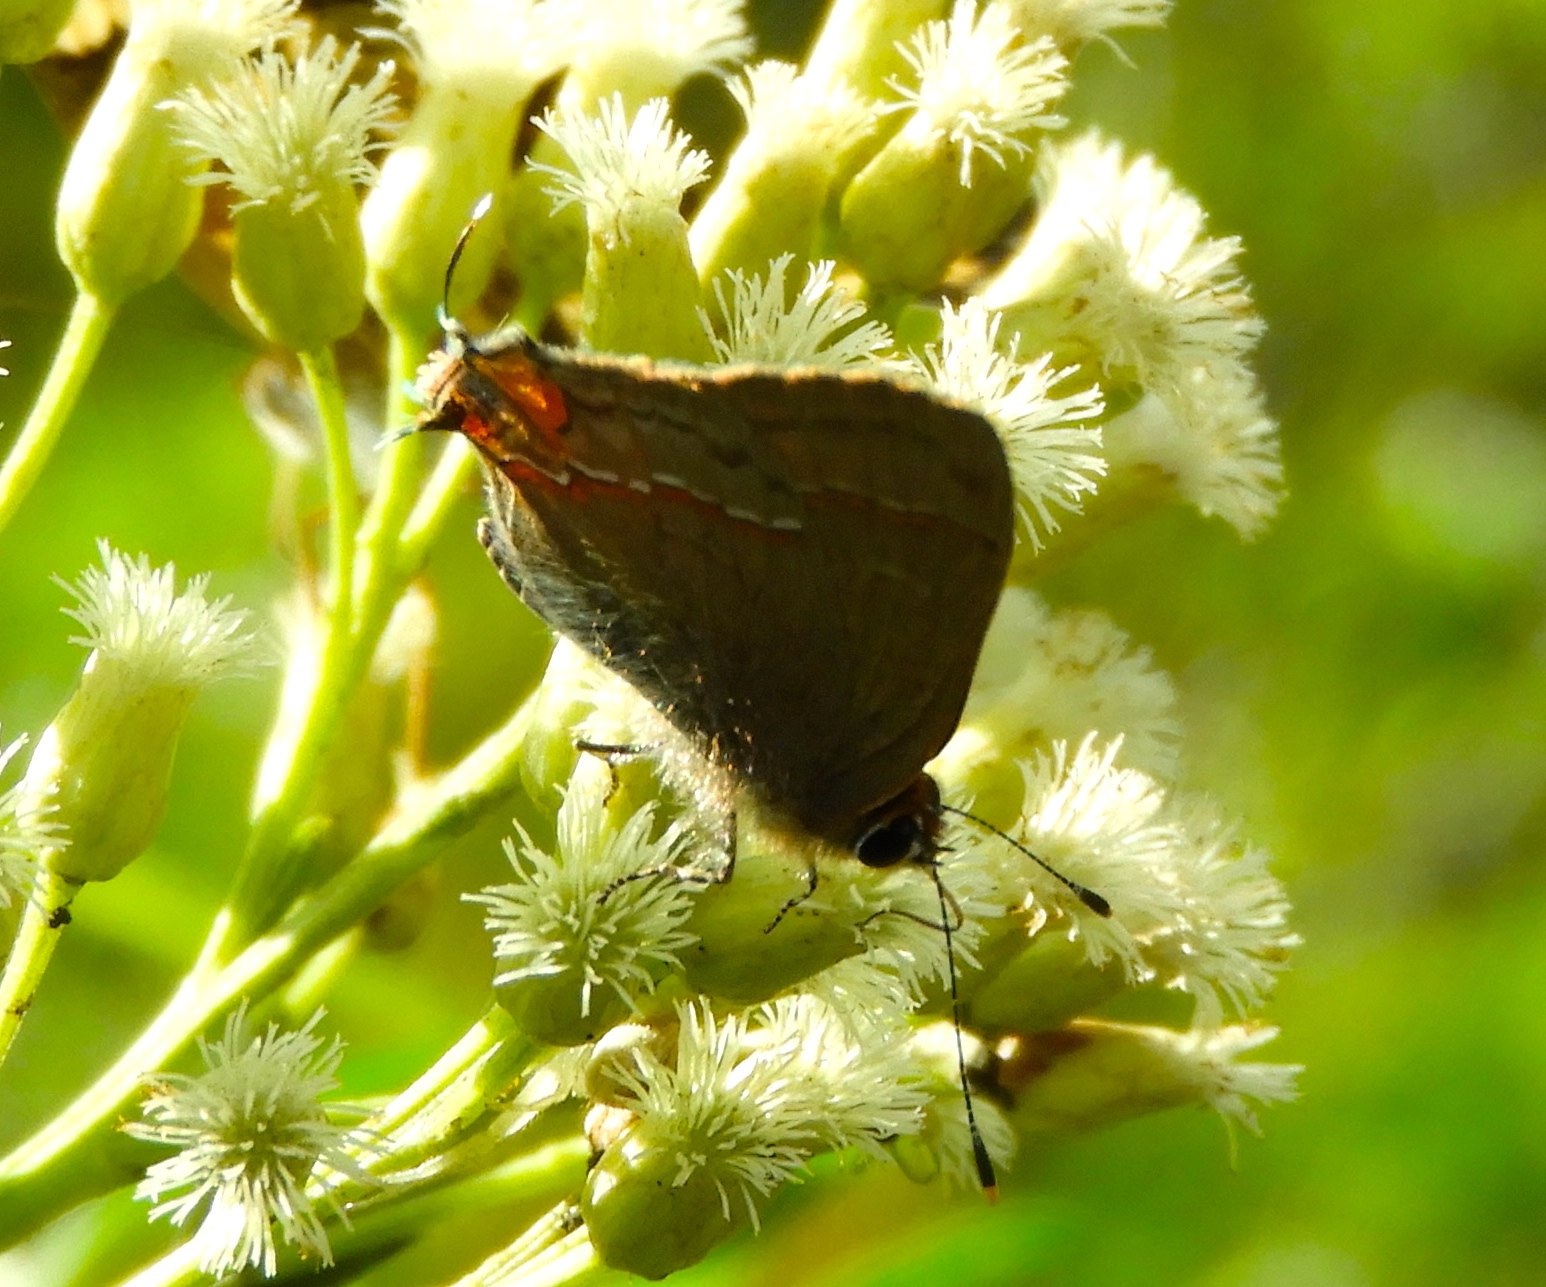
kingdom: Animalia
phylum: Arthropoda
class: Insecta
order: Lepidoptera
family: Lycaenidae
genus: Electrostrymon
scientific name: Electrostrymon endymion
